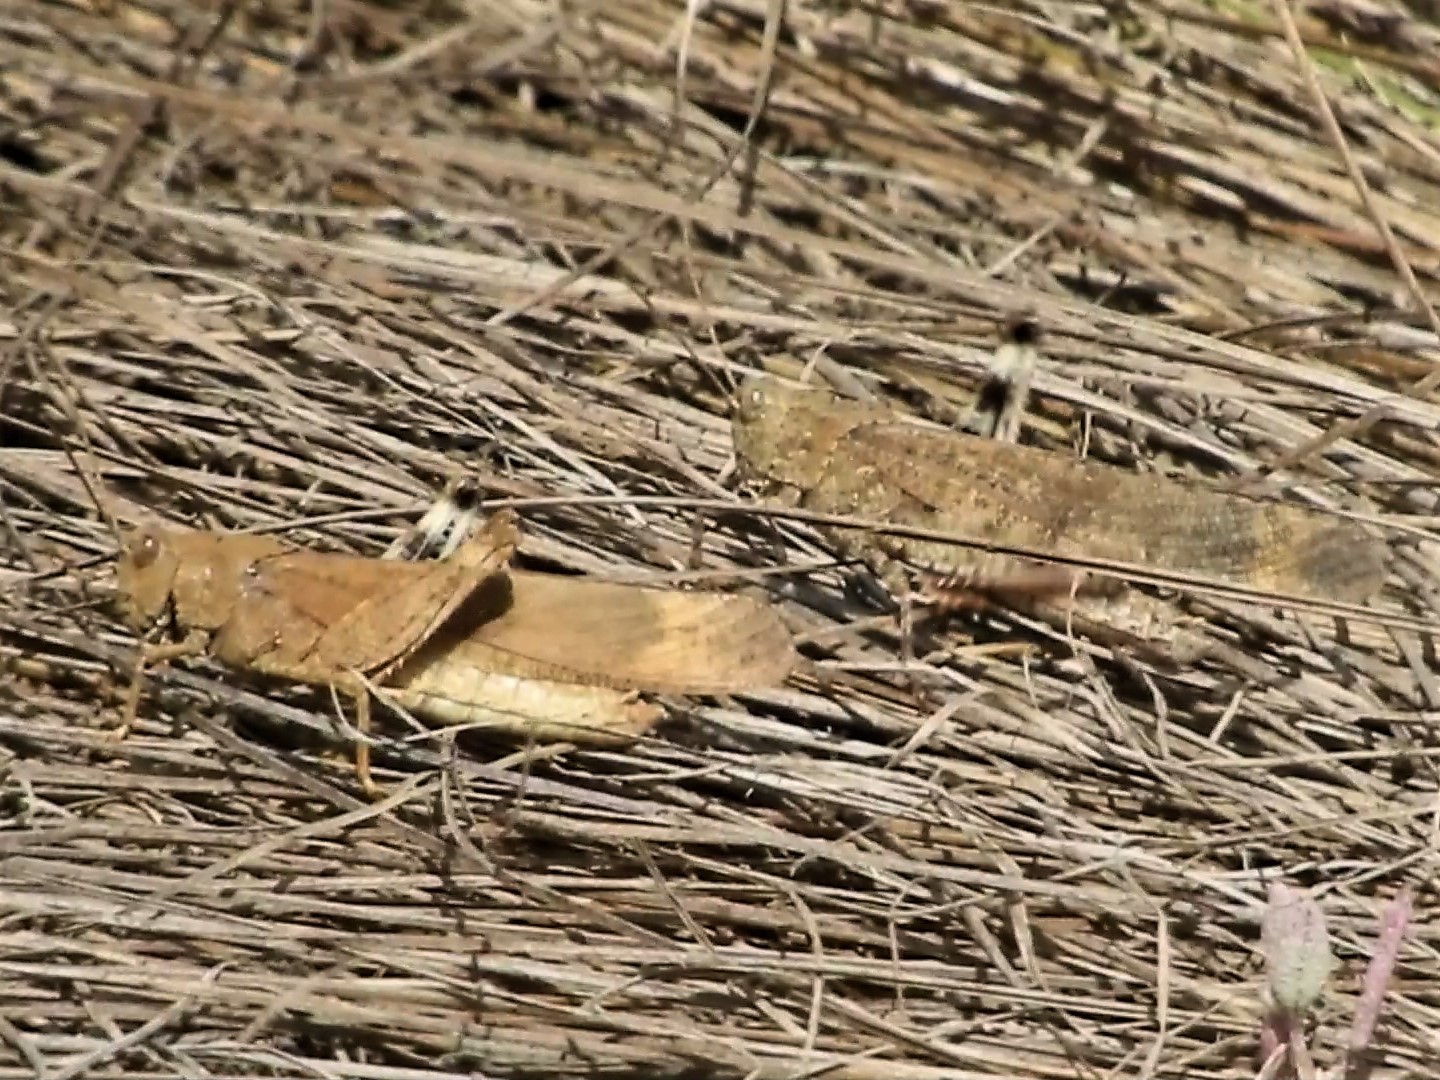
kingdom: Animalia
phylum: Arthropoda
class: Insecta
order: Orthoptera
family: Acrididae
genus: Dissosteira
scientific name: Dissosteira carolina
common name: Carolina grasshopper
